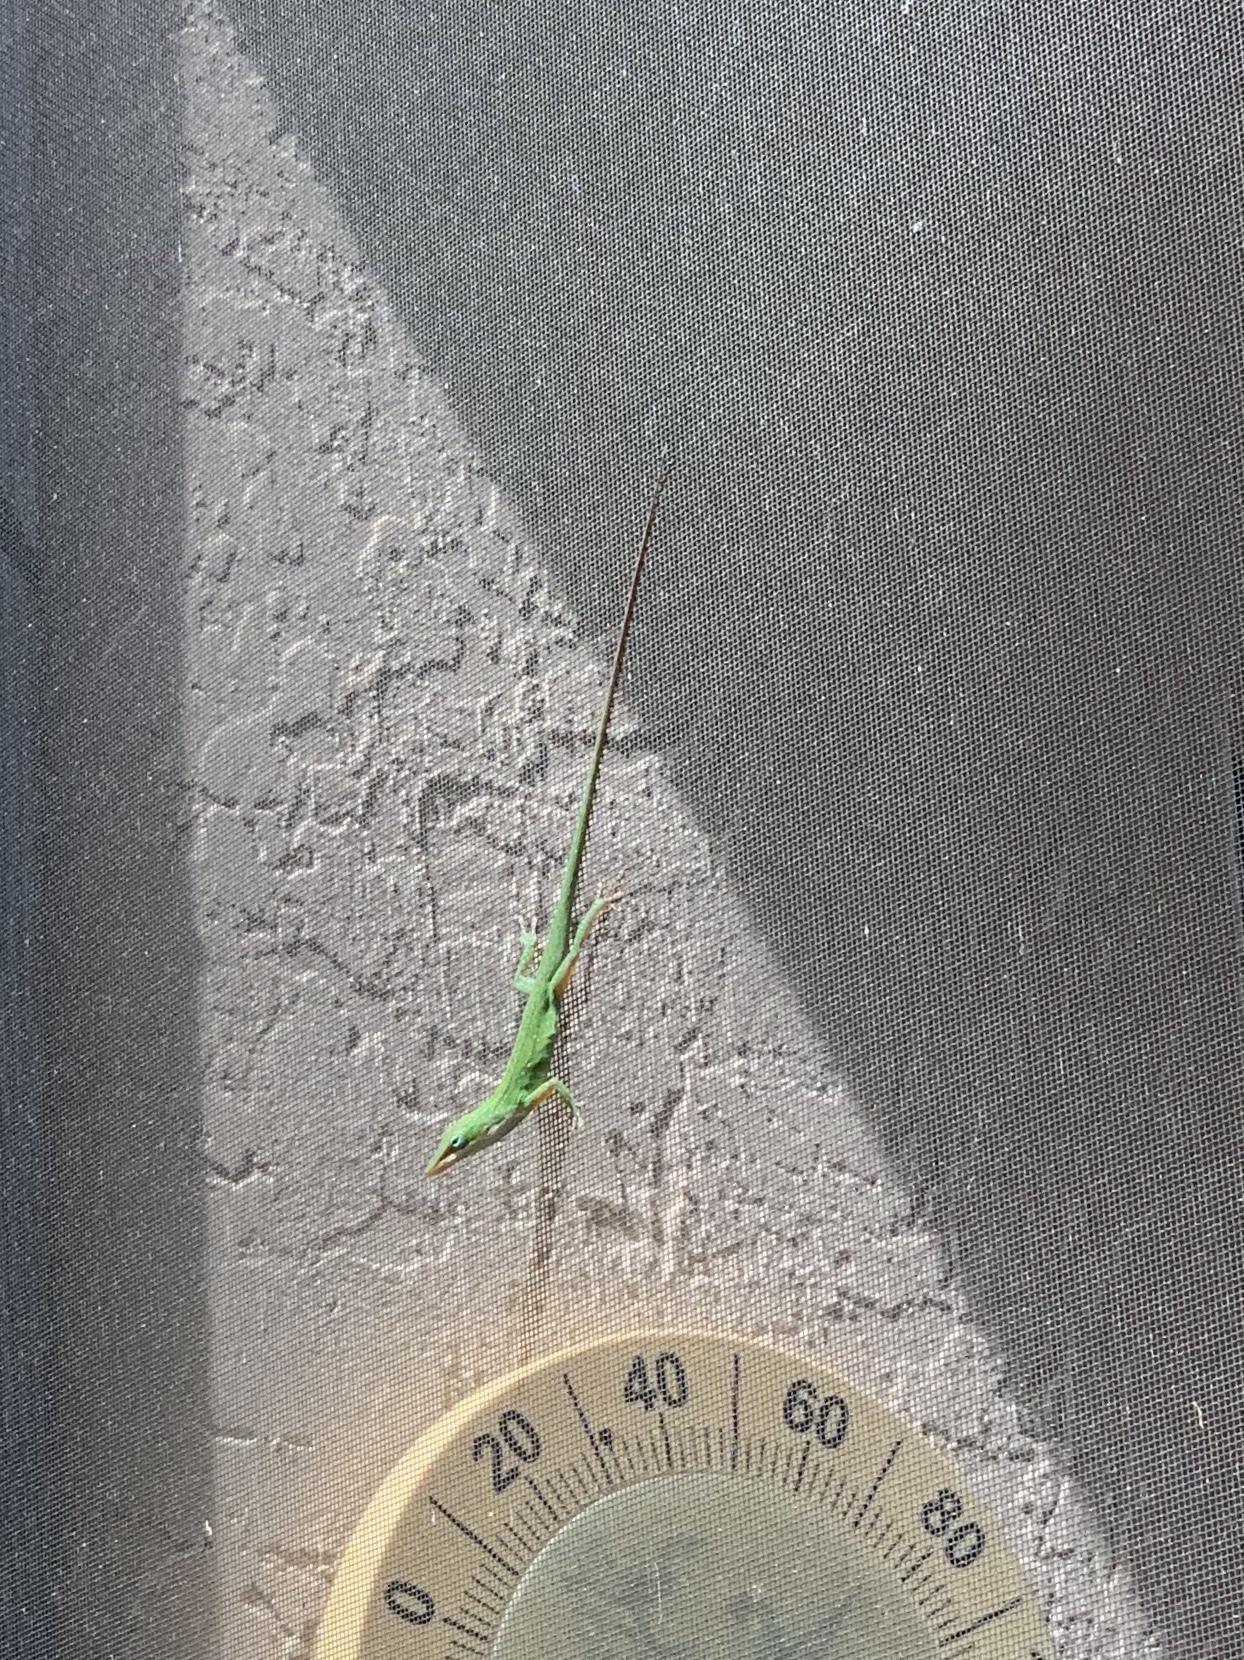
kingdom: Animalia
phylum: Chordata
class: Squamata
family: Dactyloidae
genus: Anolis
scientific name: Anolis carolinensis
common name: Green anole
